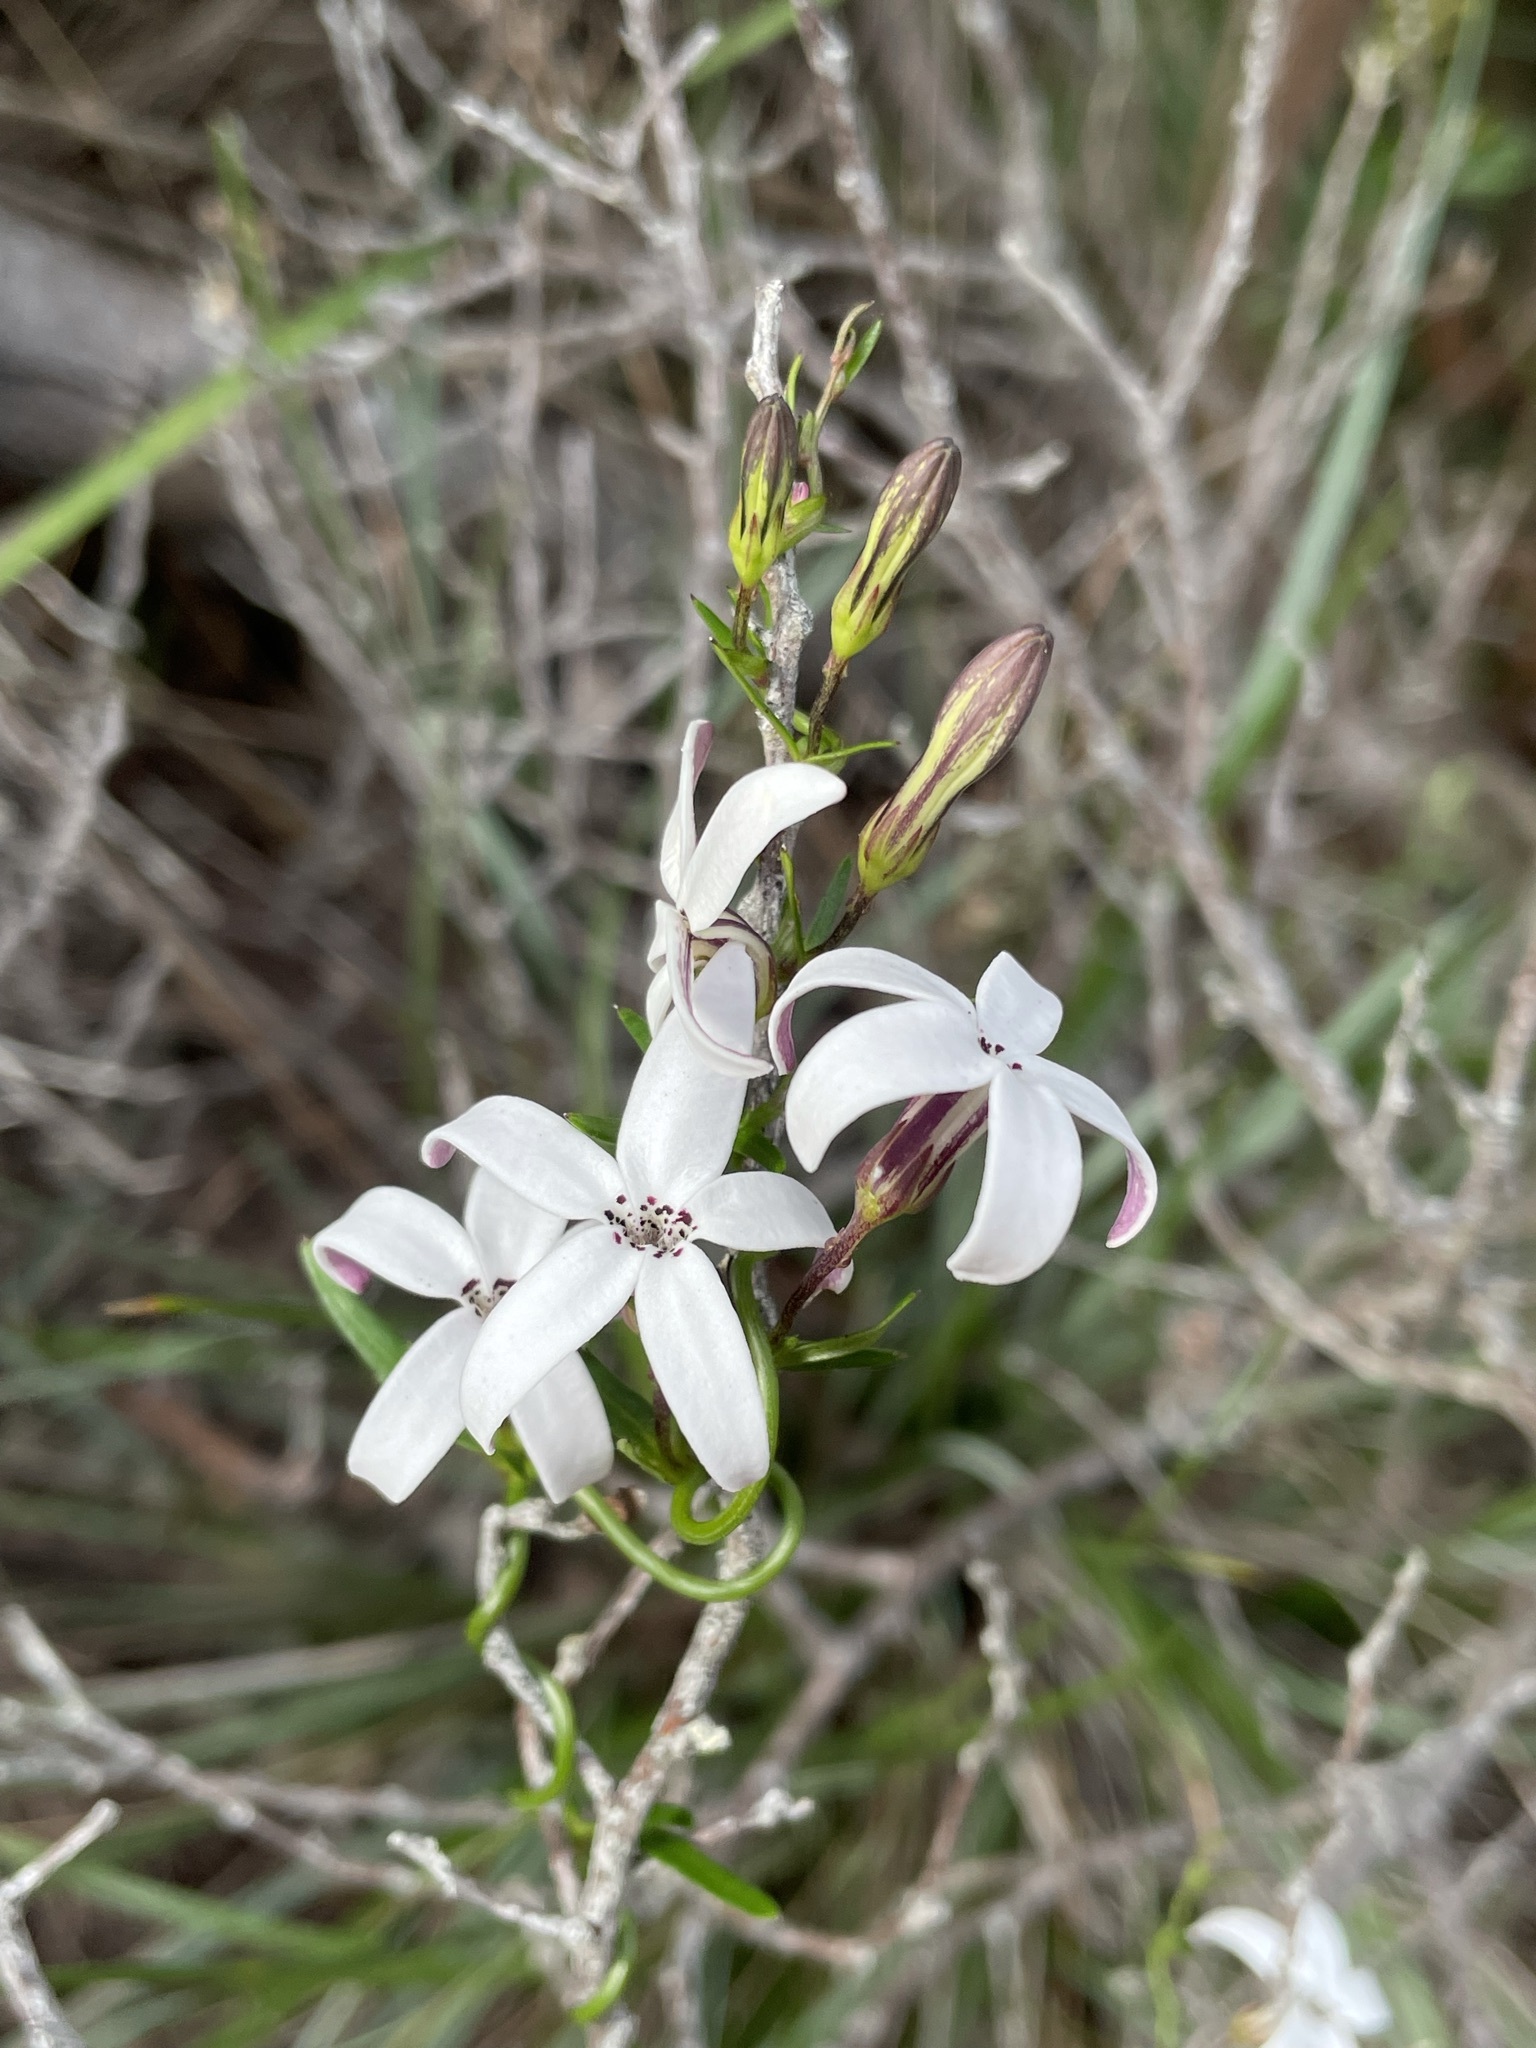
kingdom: Plantae
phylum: Tracheophyta
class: Magnoliopsida
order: Asterales
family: Campanulaceae
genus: Cyphia
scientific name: Cyphia volubilis
